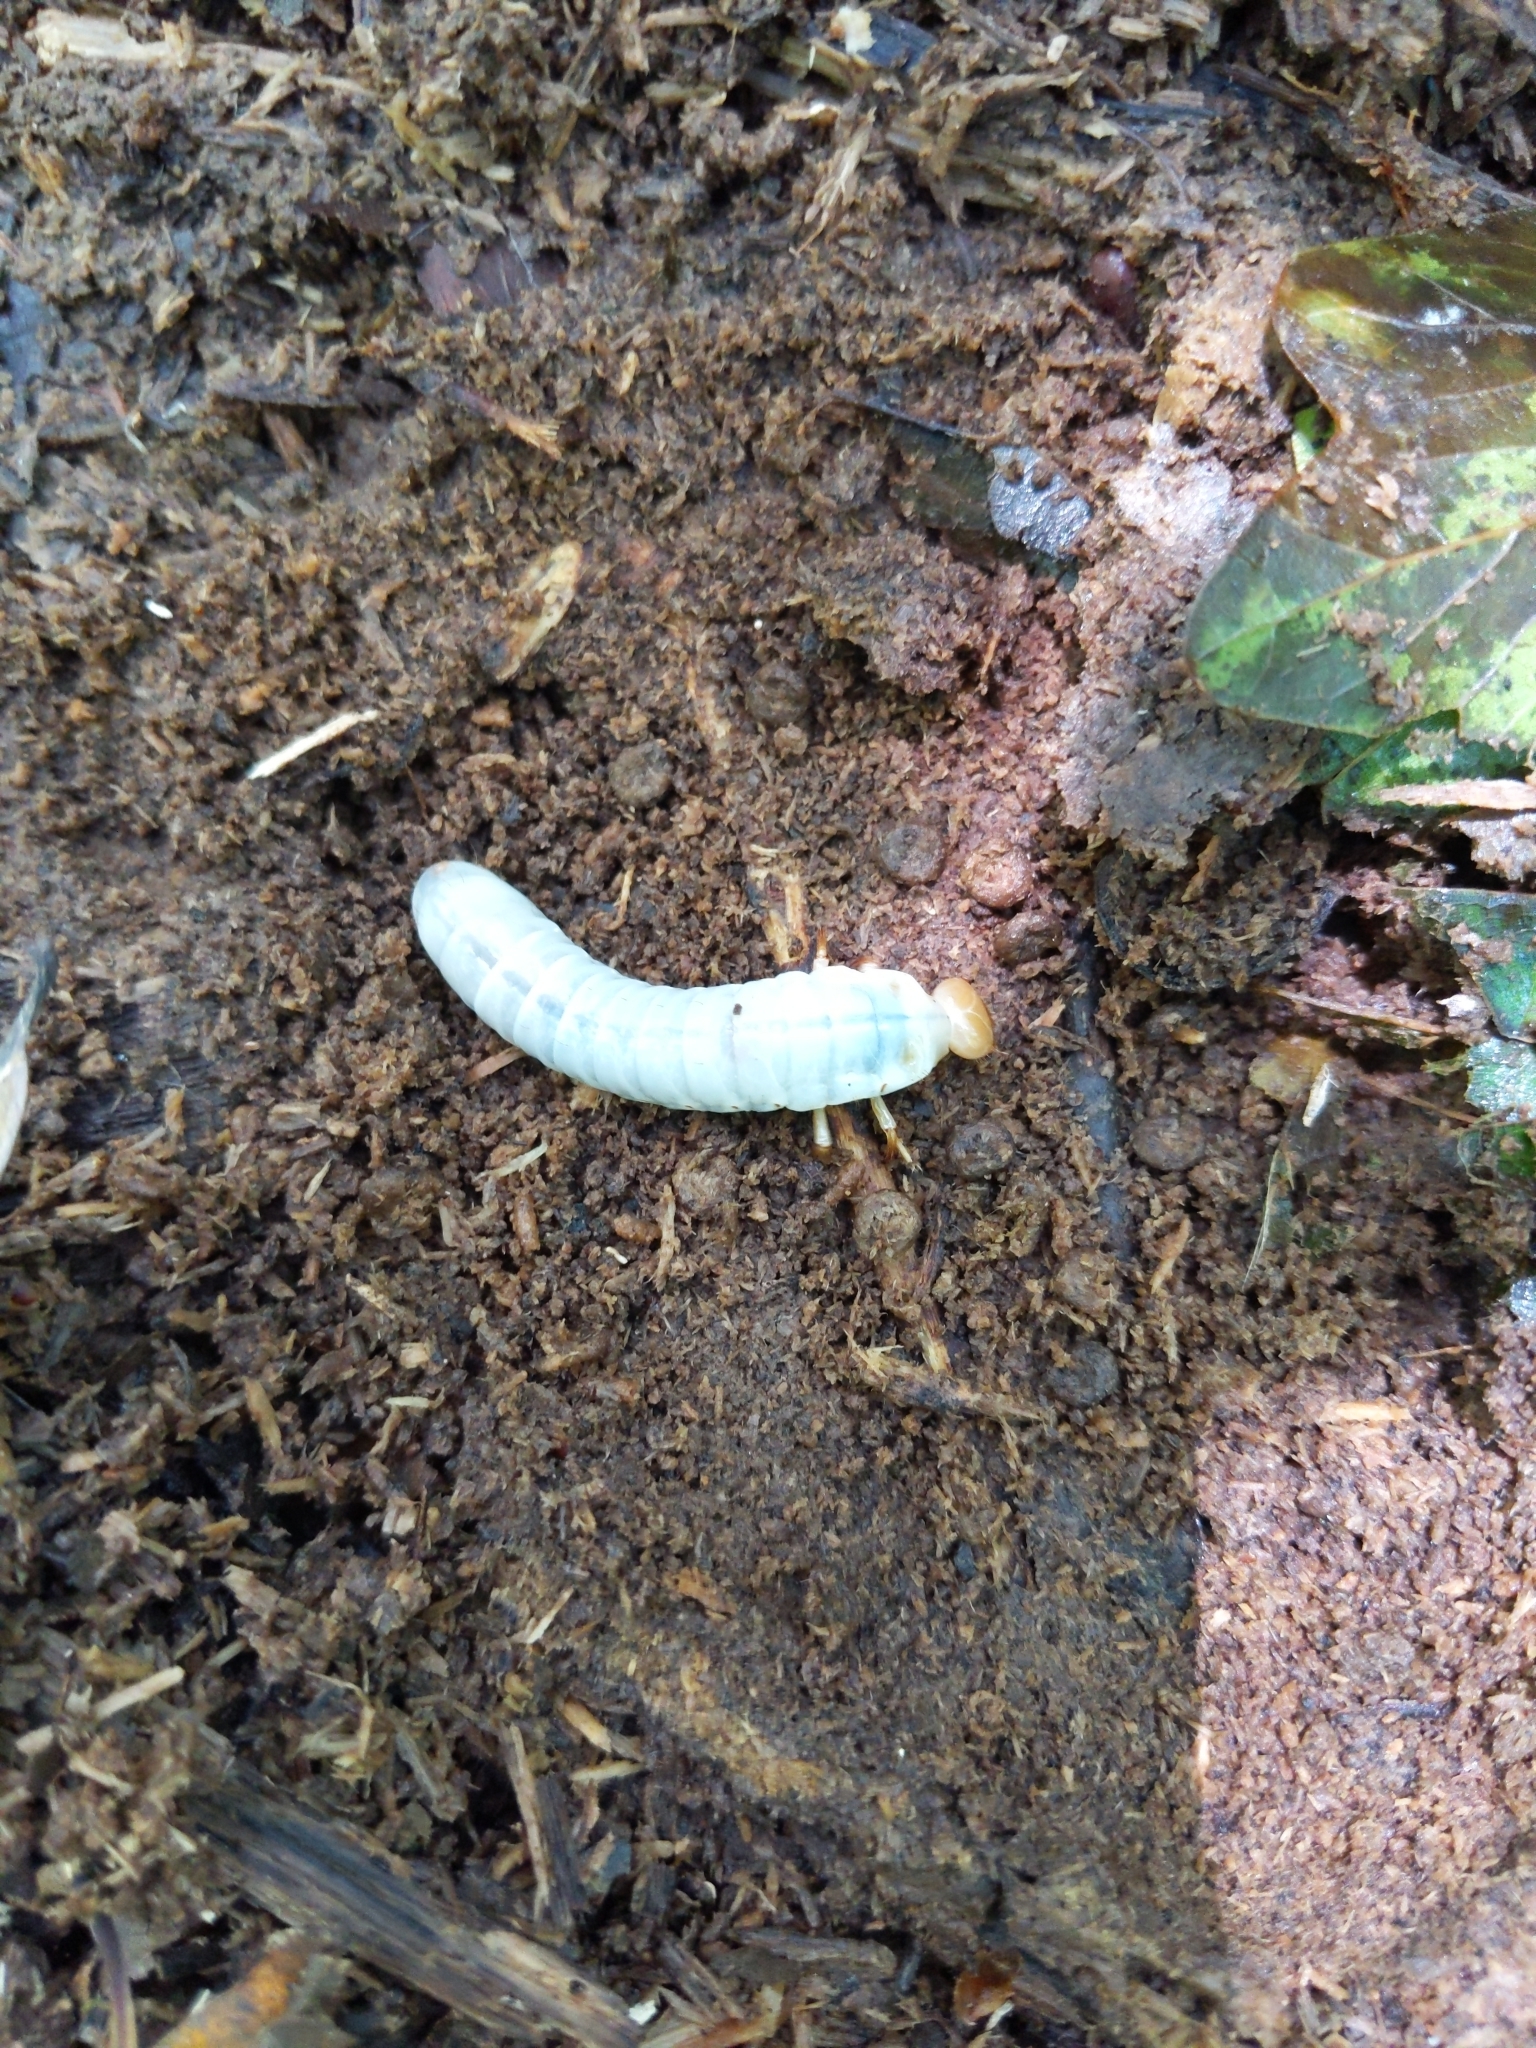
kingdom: Animalia
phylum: Arthropoda
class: Insecta
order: Coleoptera
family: Passalidae
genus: Odontotaenius
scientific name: Odontotaenius disjunctus
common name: Patent leather beetle
